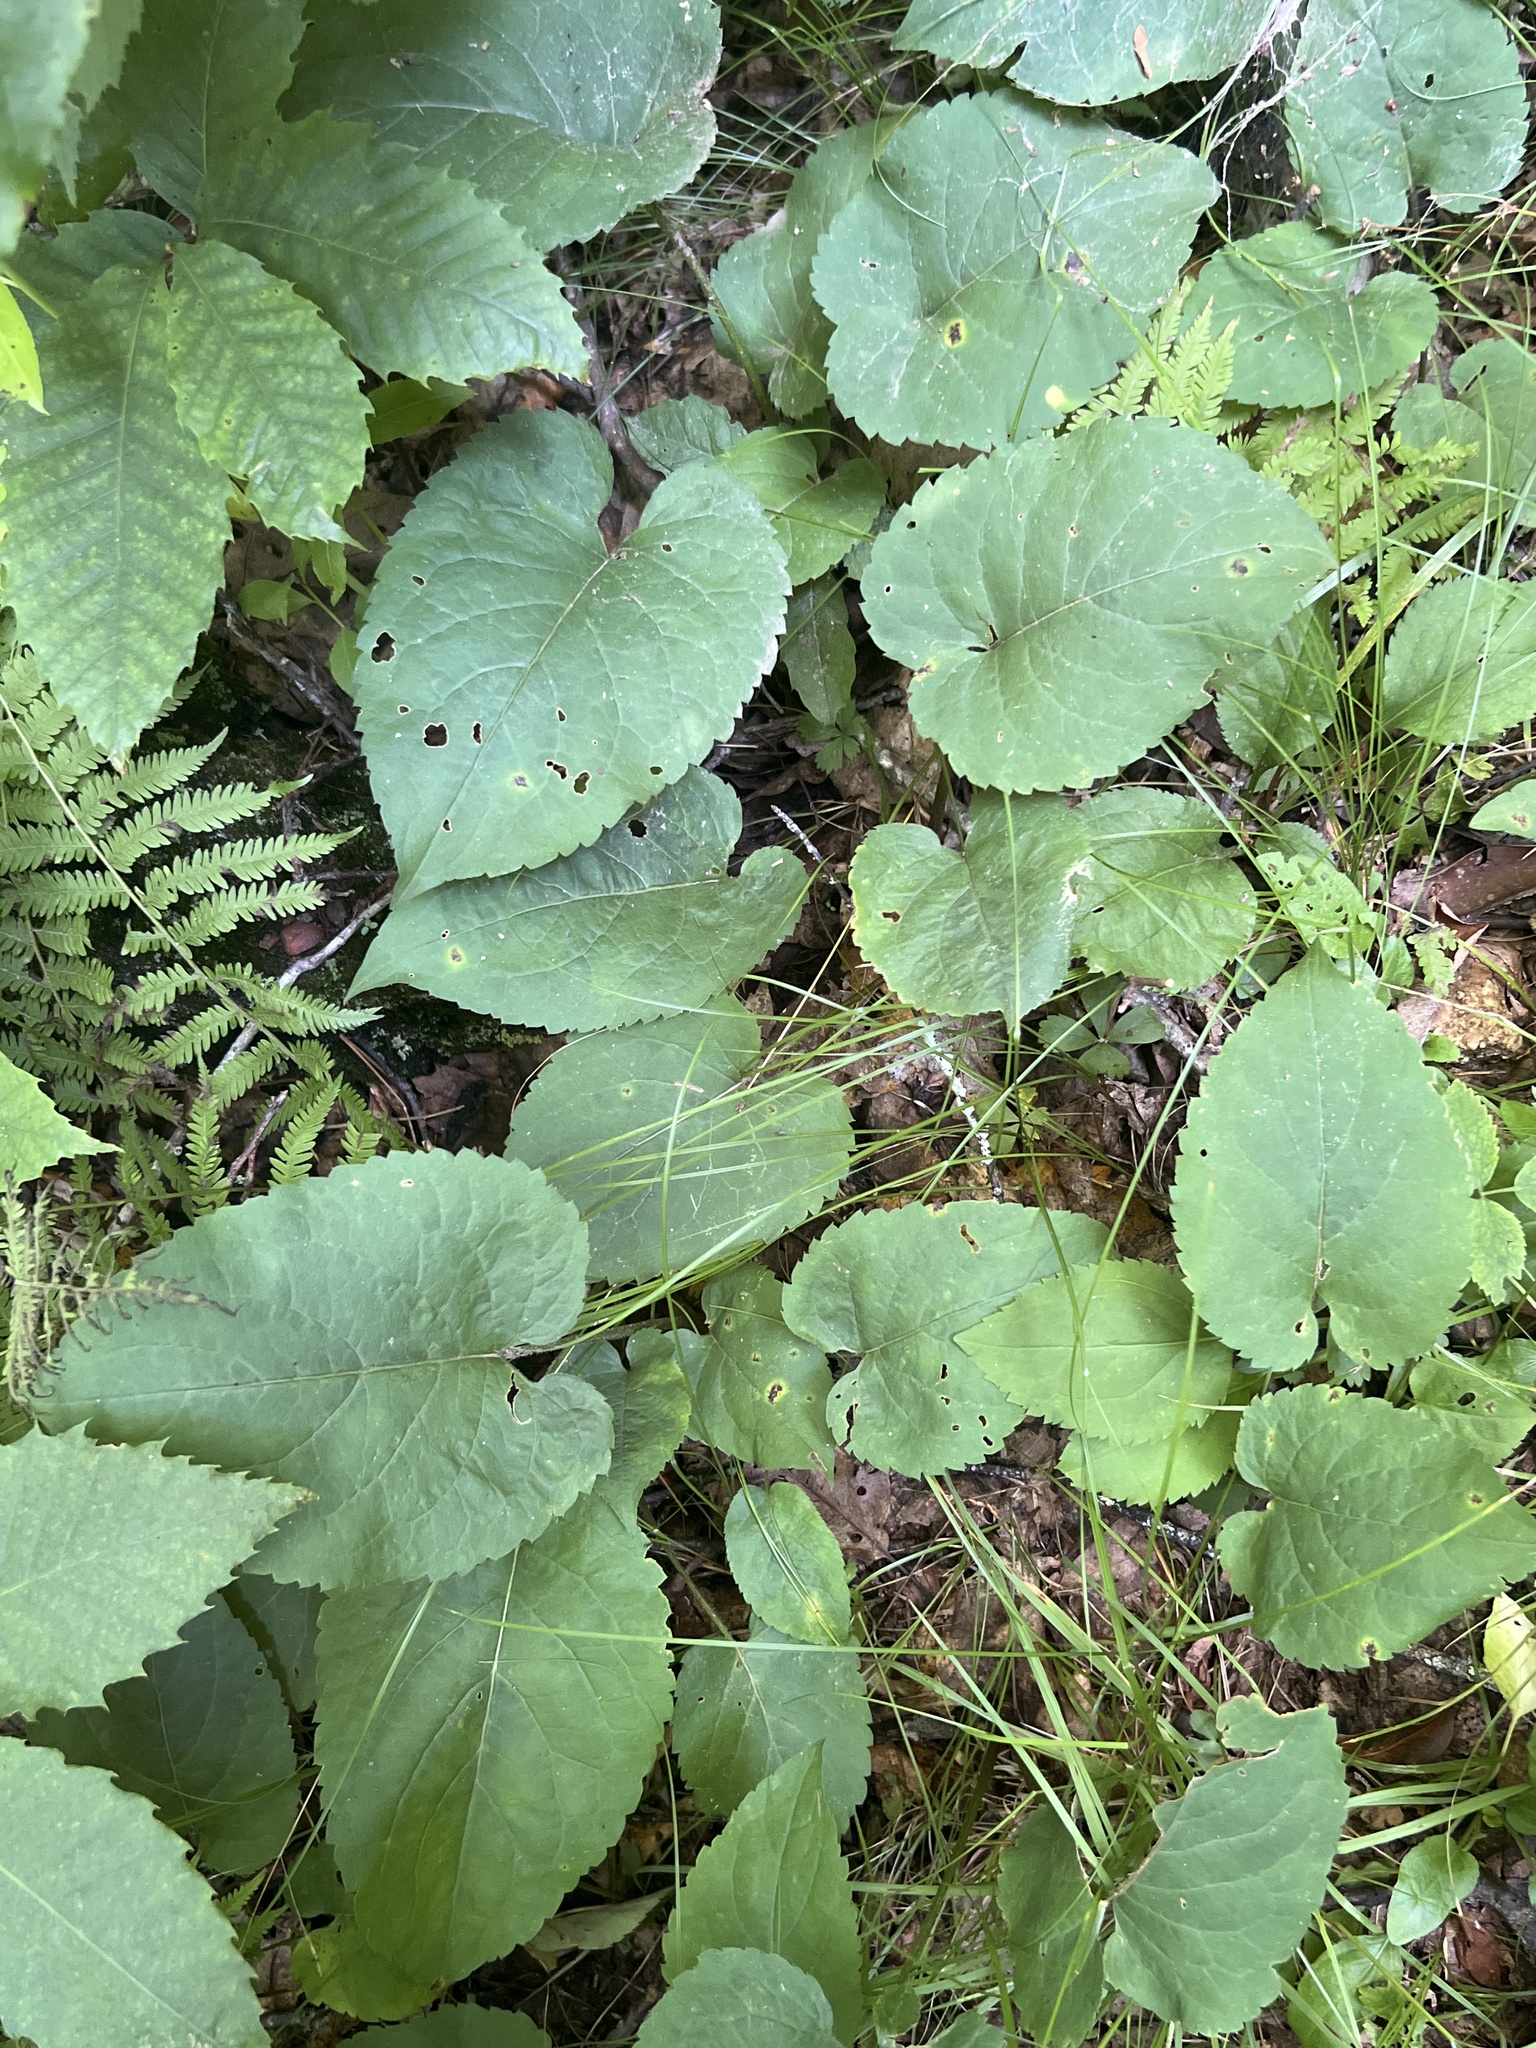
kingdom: Plantae
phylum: Tracheophyta
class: Magnoliopsida
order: Asterales
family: Asteraceae
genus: Eurybia
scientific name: Eurybia macrophylla
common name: Big-leaved aster
